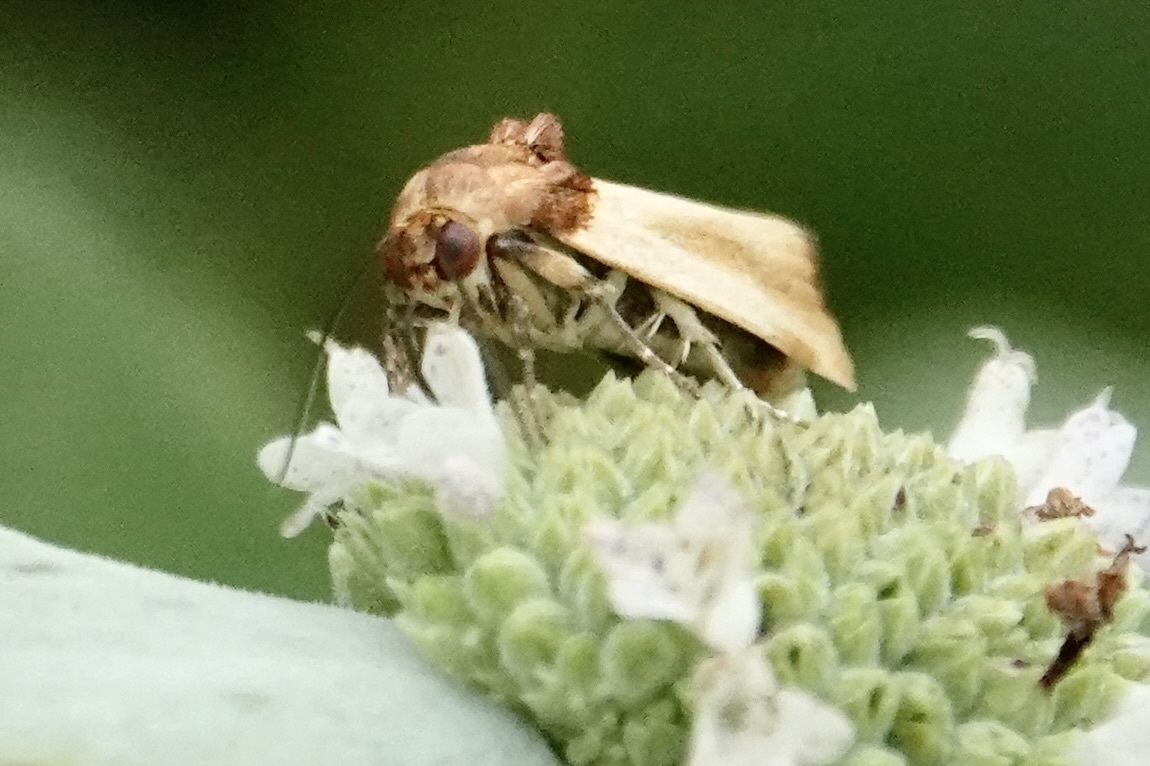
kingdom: Animalia
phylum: Arthropoda
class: Insecta
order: Lepidoptera
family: Noctuidae
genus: Spragueia
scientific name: Spragueia apicalis
